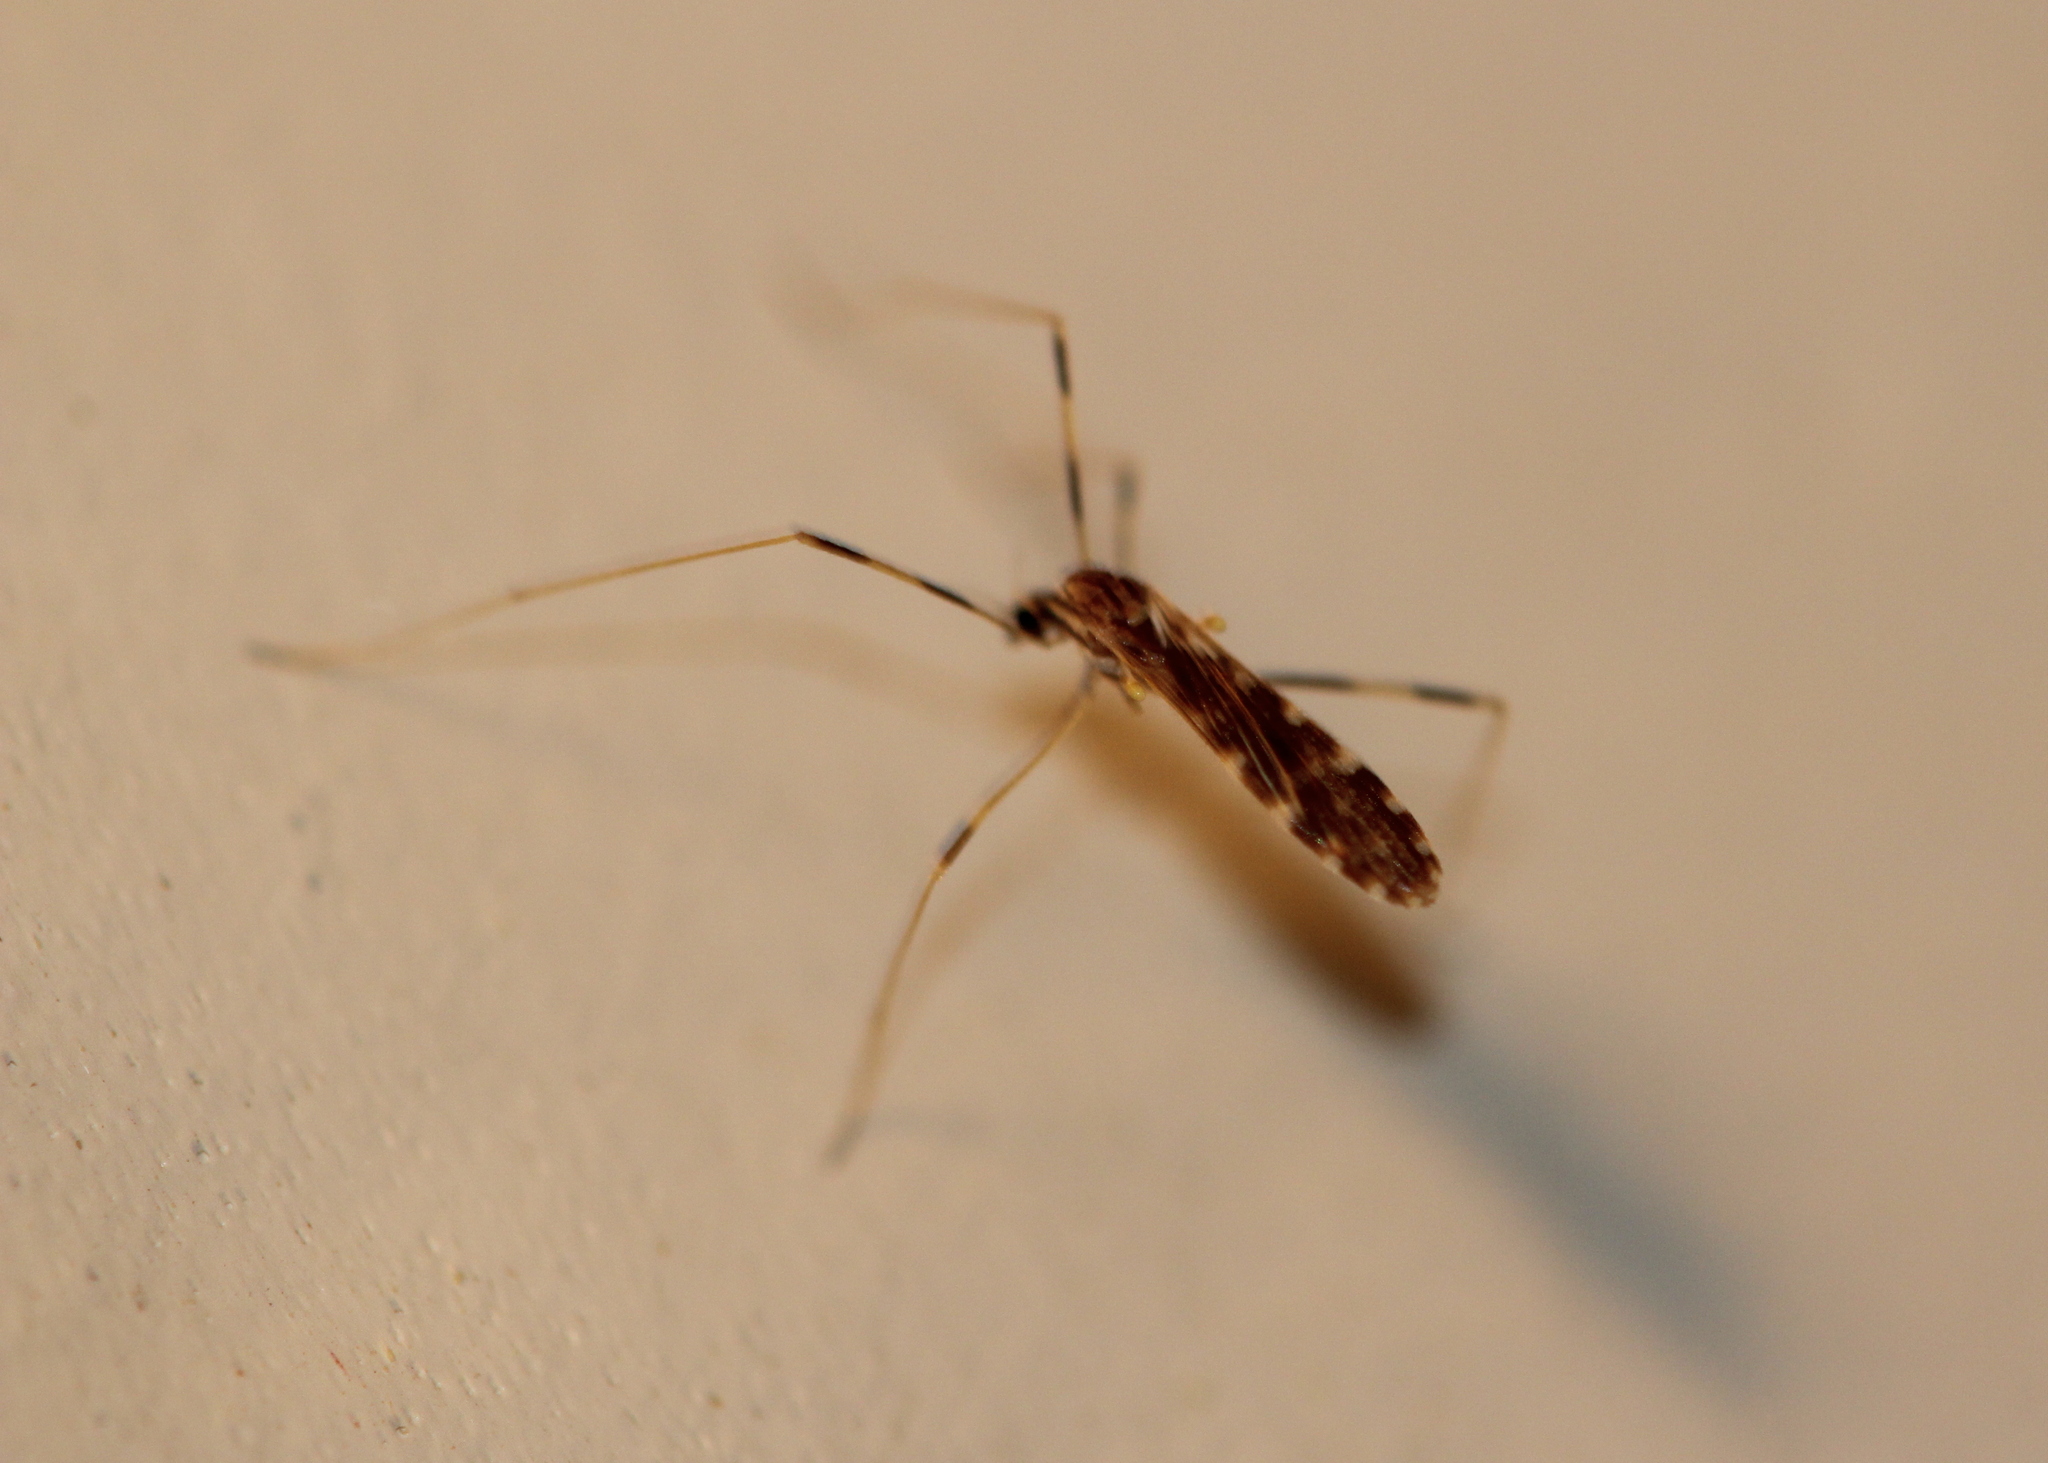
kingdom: Animalia
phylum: Arthropoda
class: Insecta
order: Diptera
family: Limoniidae
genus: Erioptera
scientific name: Erioptera caliptera
